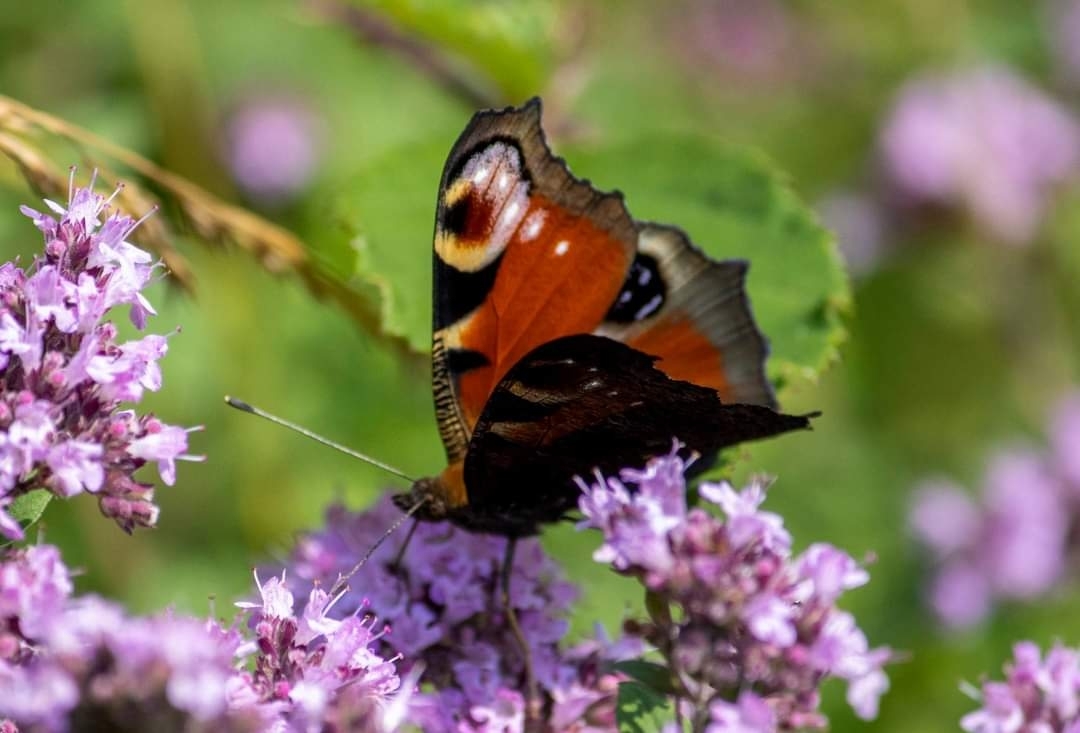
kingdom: Animalia
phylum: Arthropoda
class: Insecta
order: Lepidoptera
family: Nymphalidae
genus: Aglais
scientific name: Aglais io
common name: Peacock
